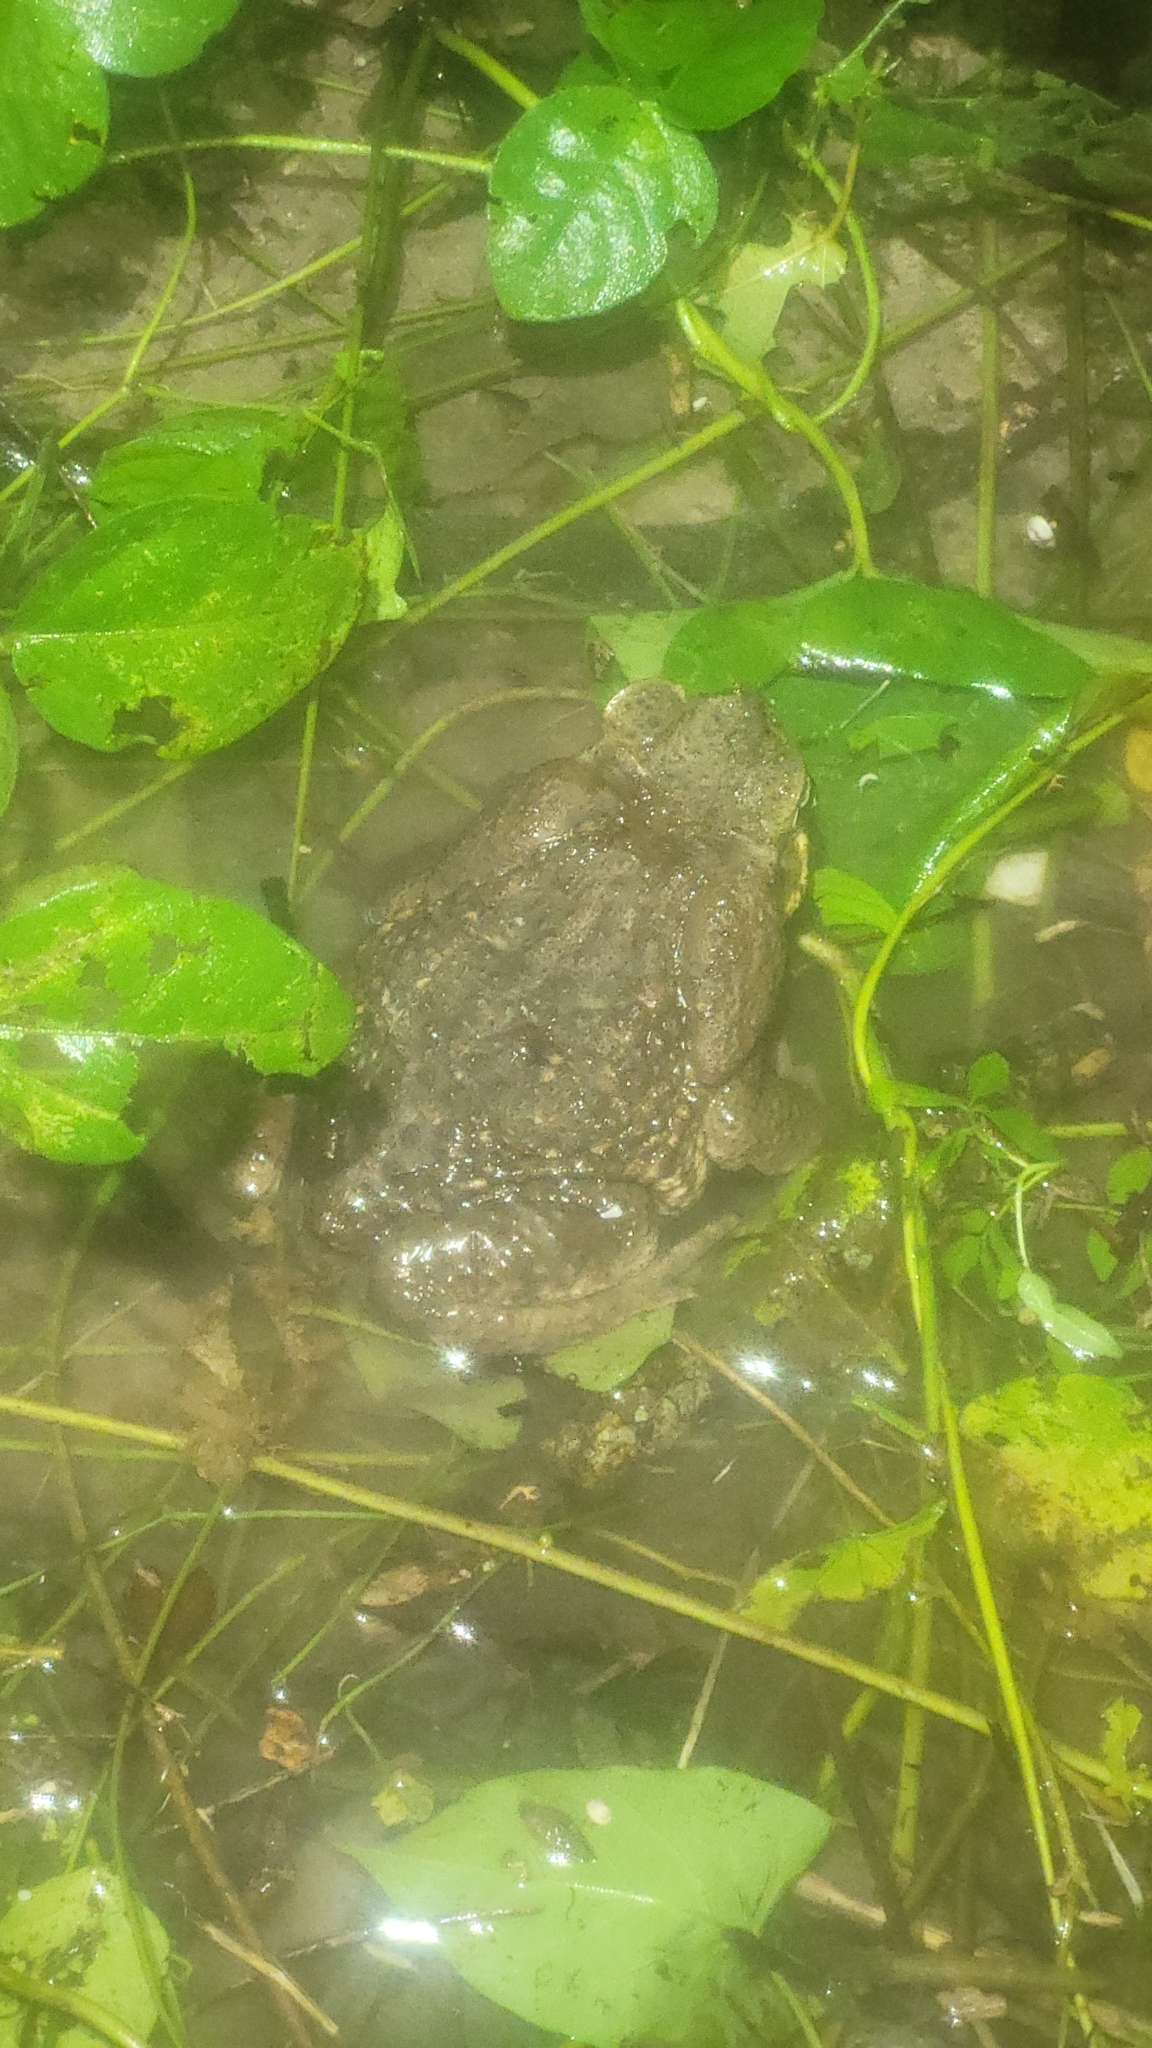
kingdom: Animalia
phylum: Chordata
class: Amphibia
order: Anura
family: Bufonidae
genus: Rhinella
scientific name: Rhinella horribilis
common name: Mesoamerican cane toad
